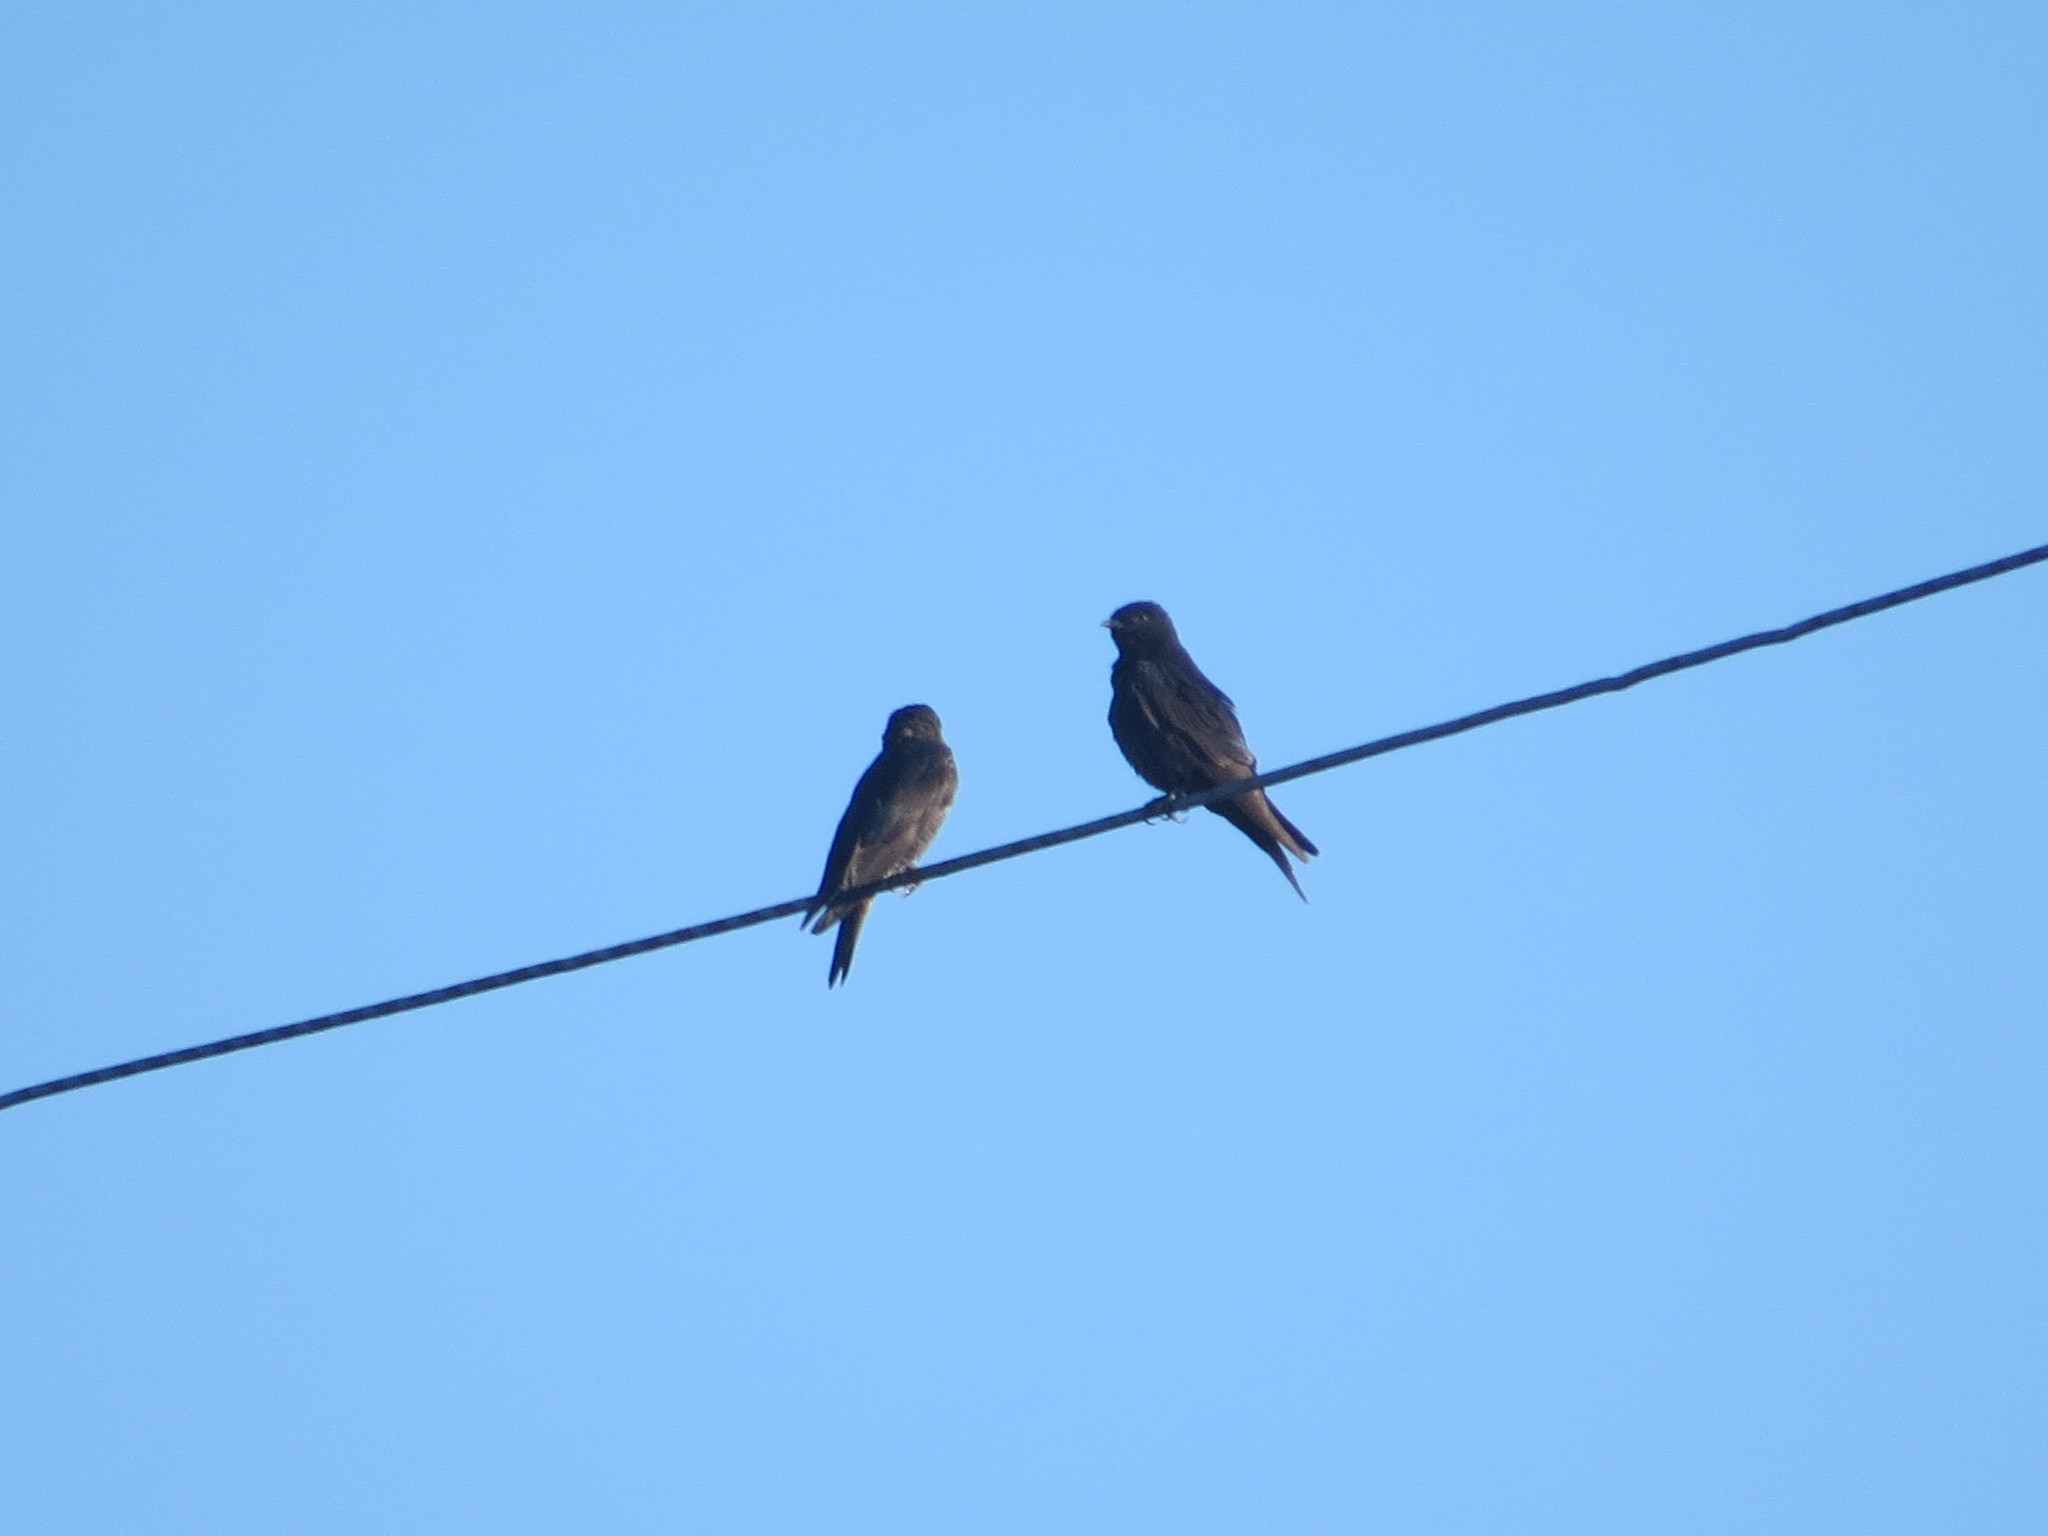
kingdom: Animalia
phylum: Chordata
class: Aves
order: Passeriformes
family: Hirundinidae
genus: Progne
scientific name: Progne elegans
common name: Southern martin
